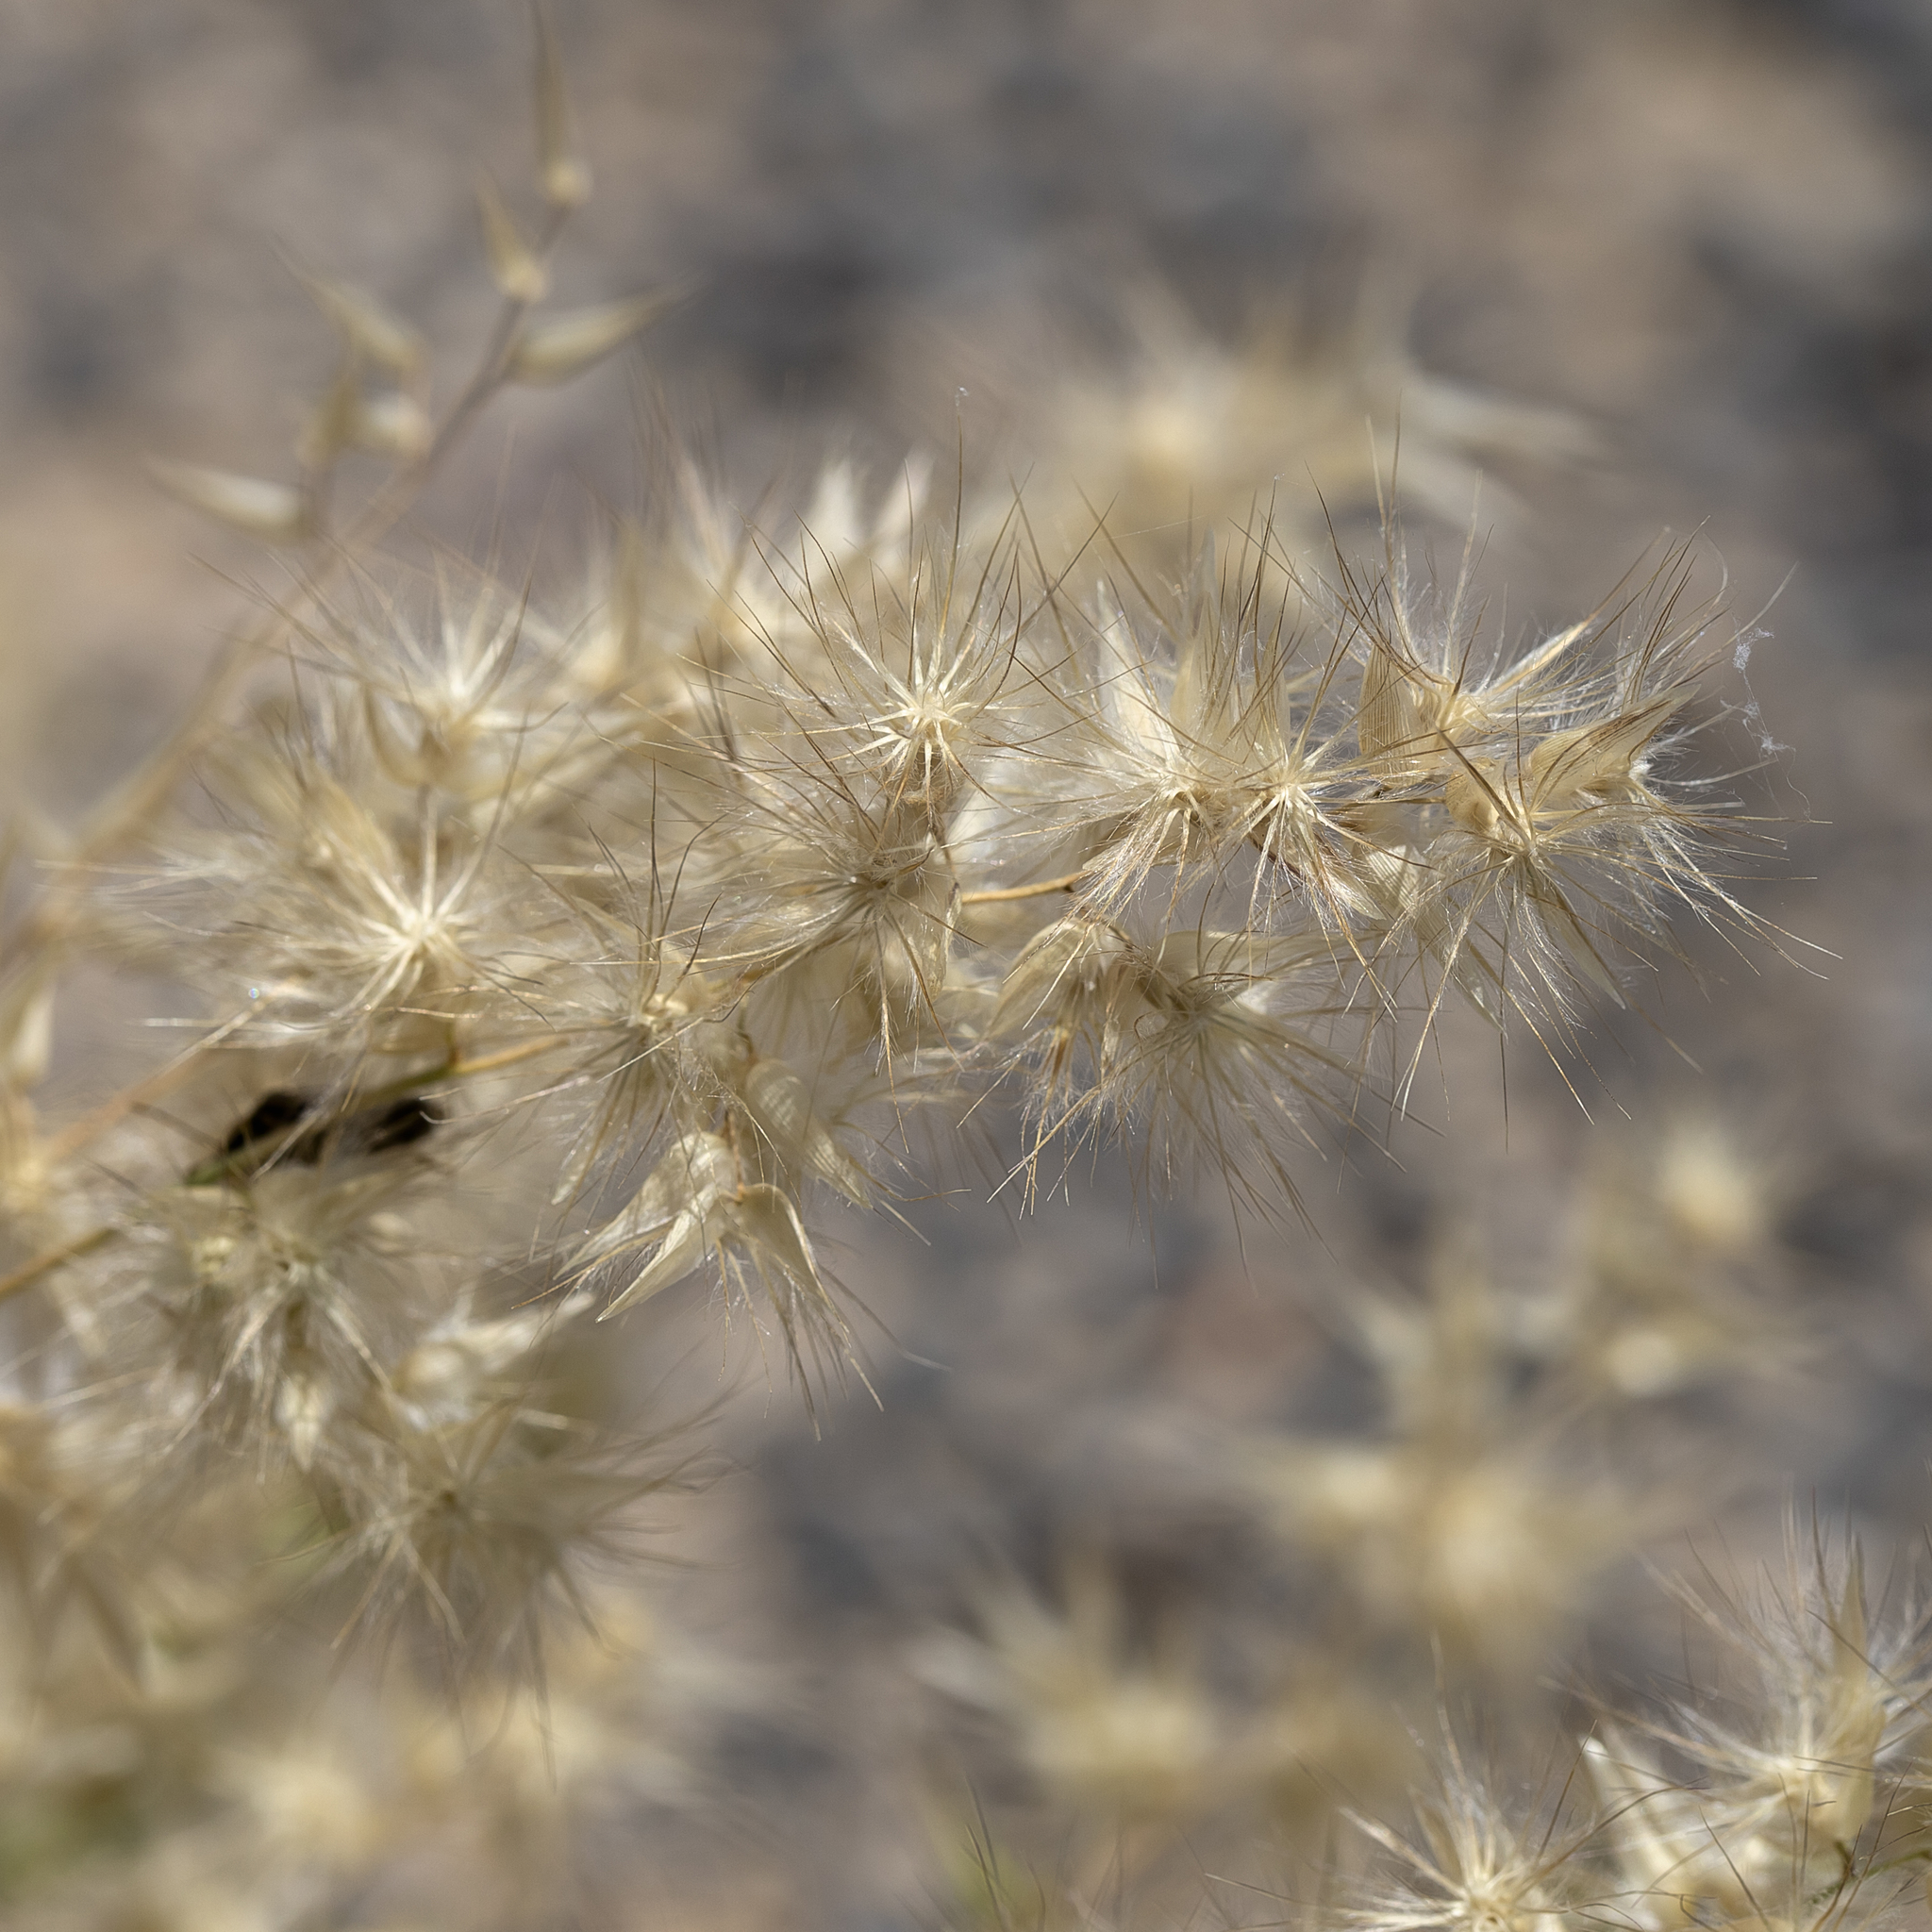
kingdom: Plantae
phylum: Tracheophyta
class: Liliopsida
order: Poales
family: Poaceae
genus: Enneapogon
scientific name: Enneapogon avenaceus
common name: Hairy oat grass
